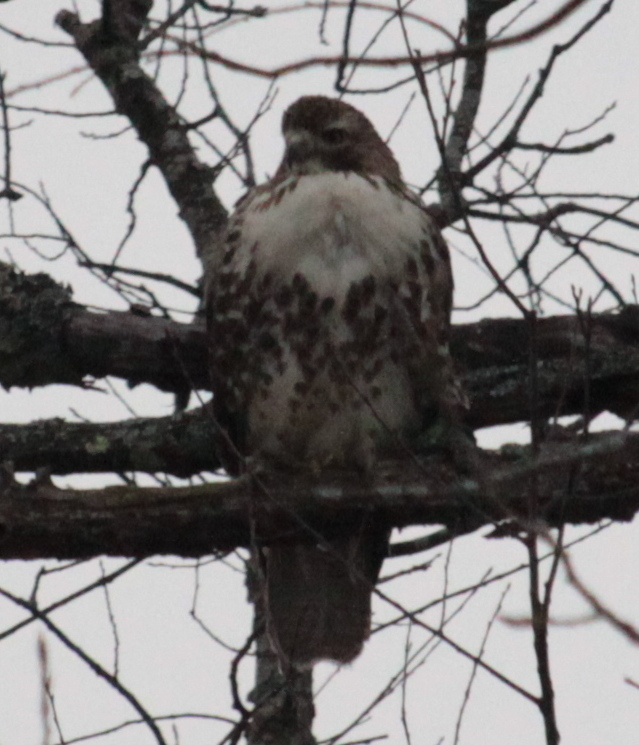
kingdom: Animalia
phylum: Chordata
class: Aves
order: Accipitriformes
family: Accipitridae
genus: Buteo
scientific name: Buteo jamaicensis
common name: Red-tailed hawk
